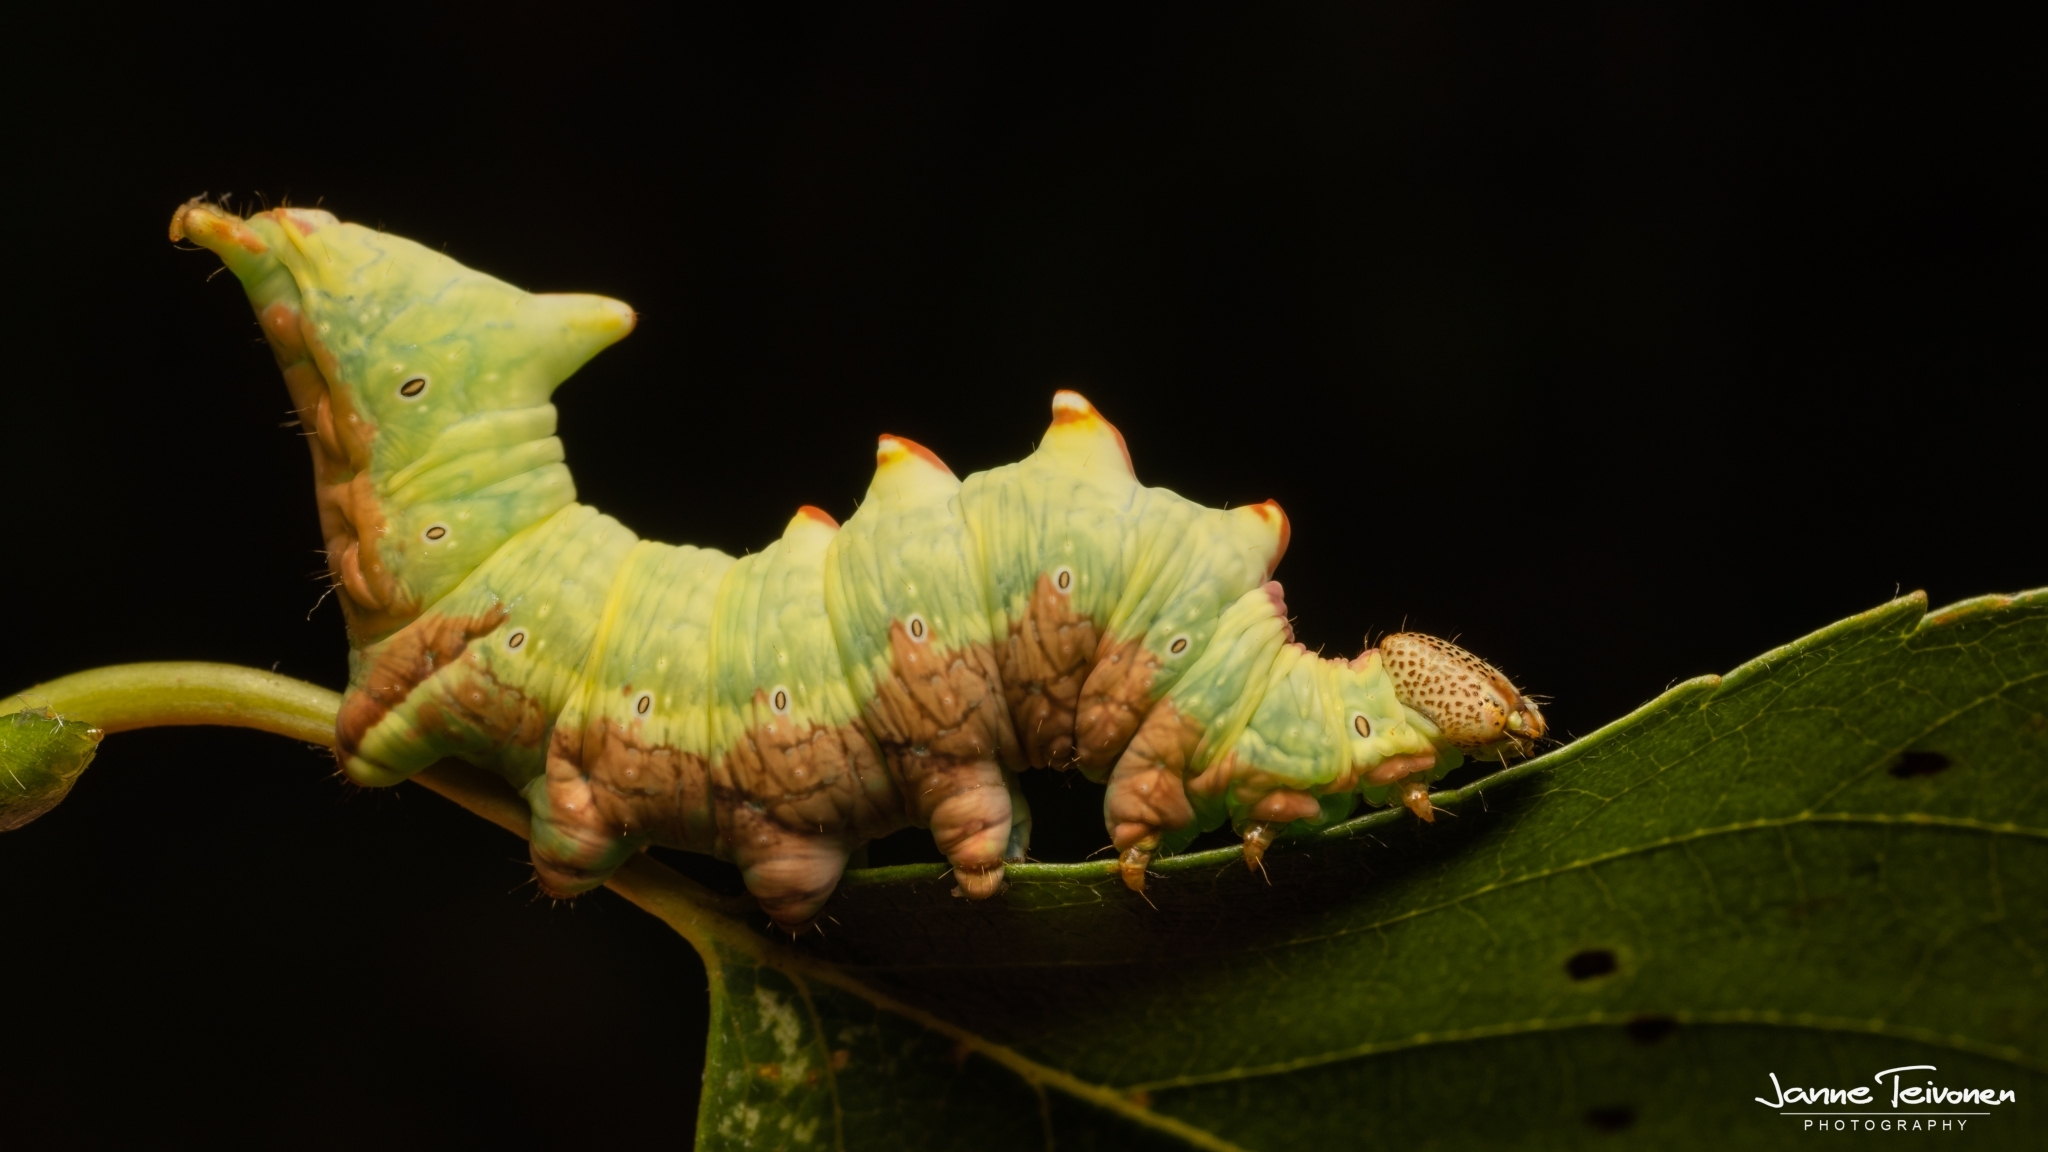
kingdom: Animalia
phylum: Arthropoda
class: Insecta
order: Lepidoptera
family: Notodontidae
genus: Notodonta
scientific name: Notodonta dromedarius
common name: Iron prominent
